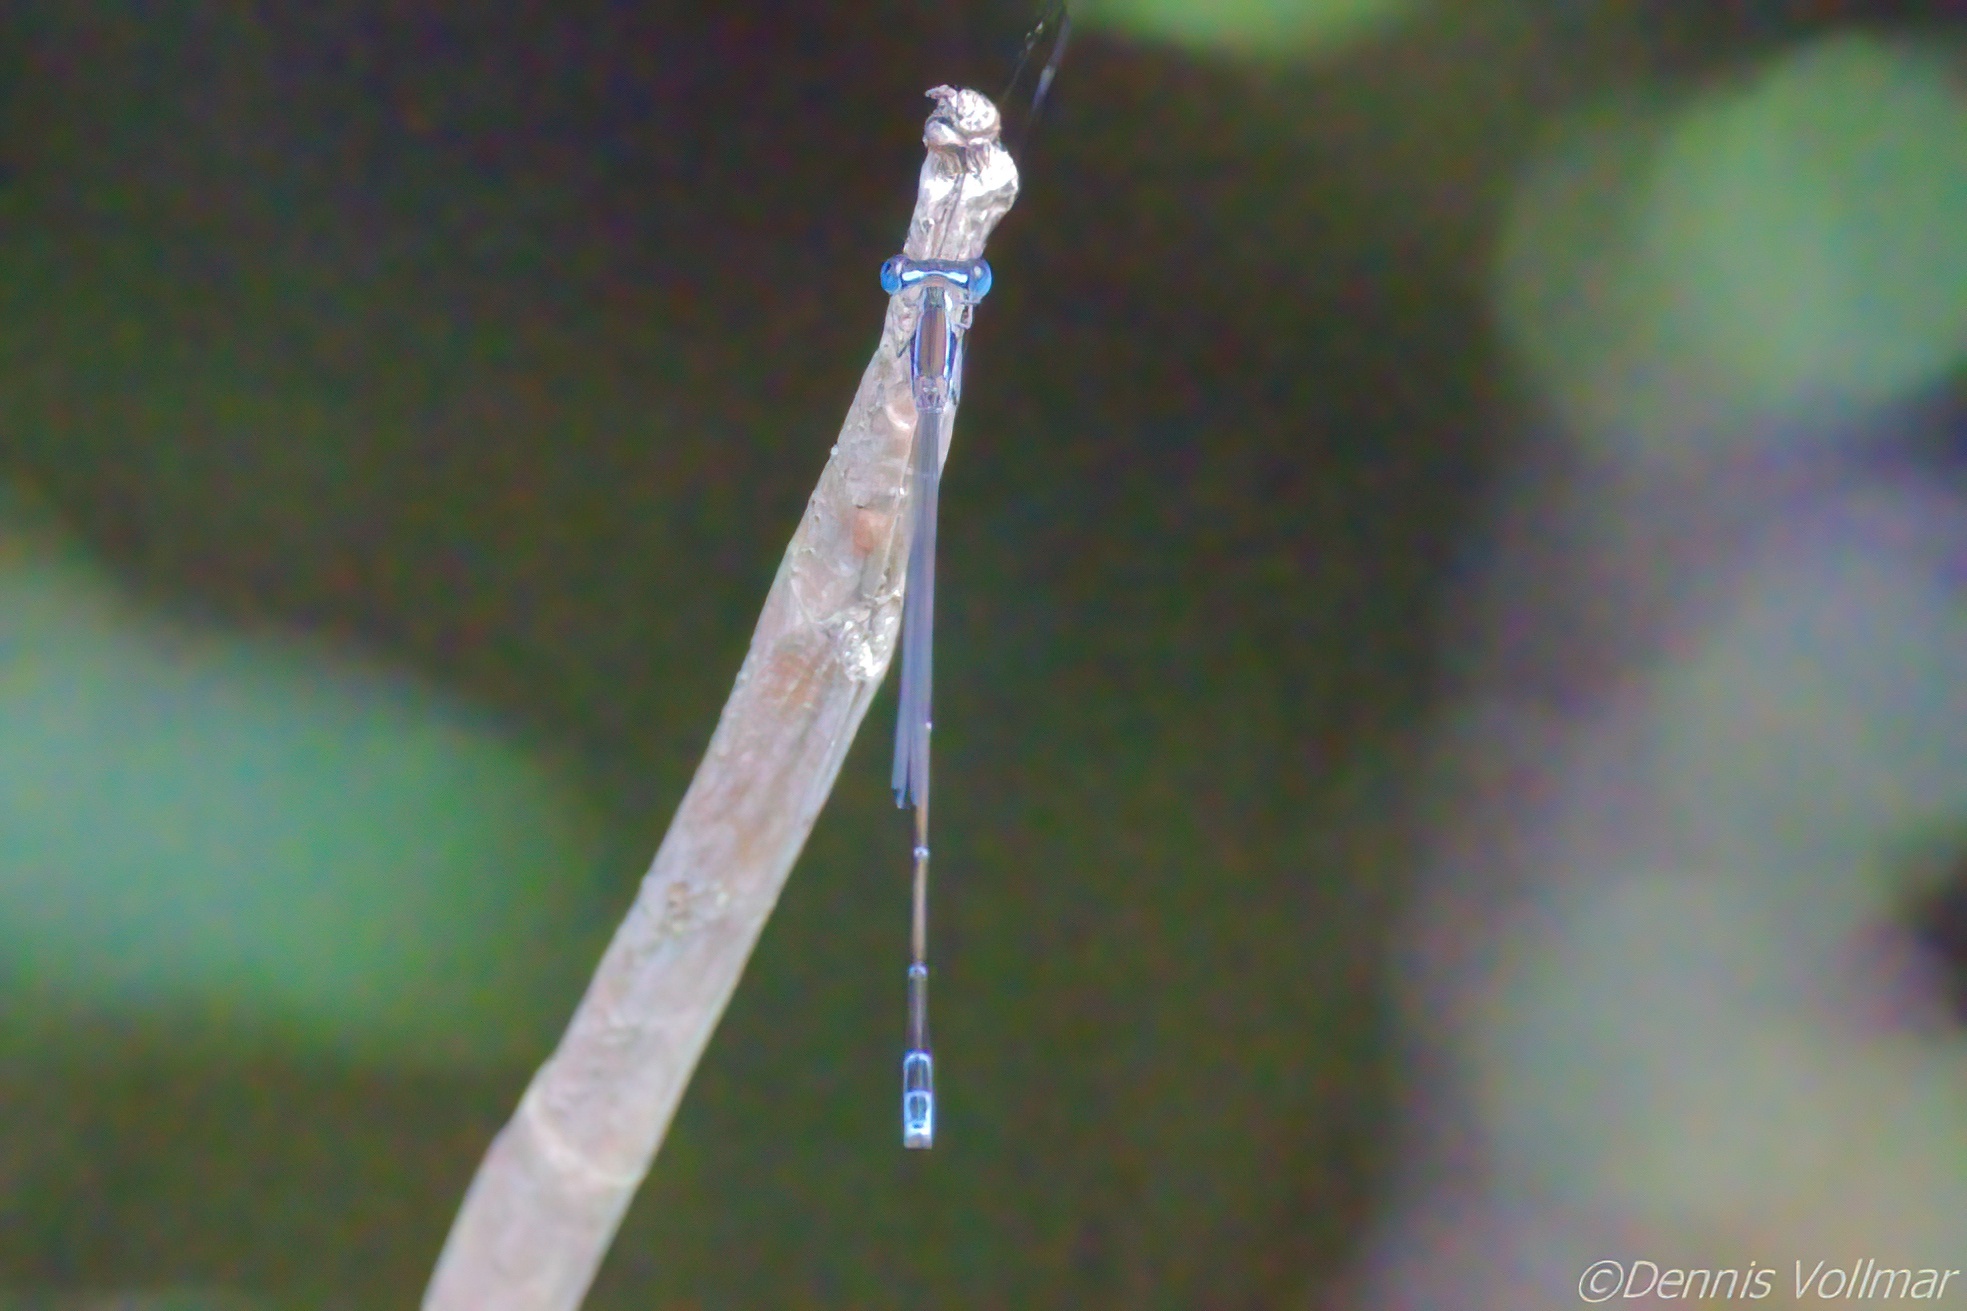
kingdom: Animalia
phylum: Arthropoda
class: Insecta
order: Odonata
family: Coenagrionidae
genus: Nehalennia
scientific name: Nehalennia pallidula
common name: Everglades sprite
